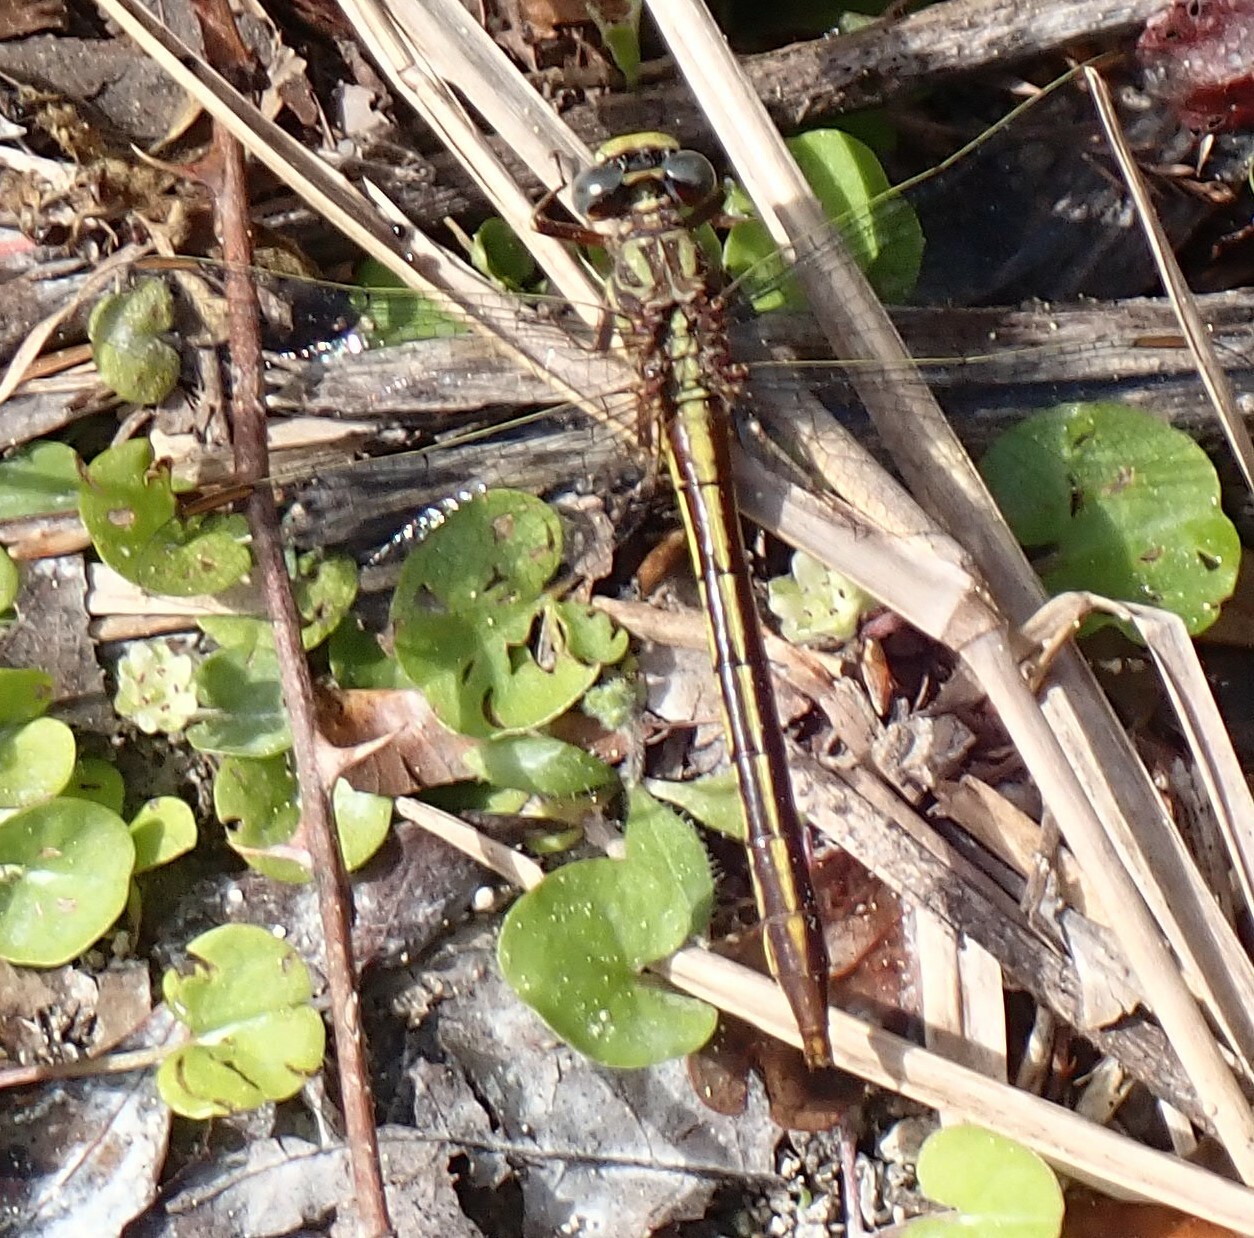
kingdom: Animalia
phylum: Arthropoda
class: Insecta
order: Odonata
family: Gomphidae
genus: Phanogomphus
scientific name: Phanogomphus minutus
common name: Cypress clubtail
